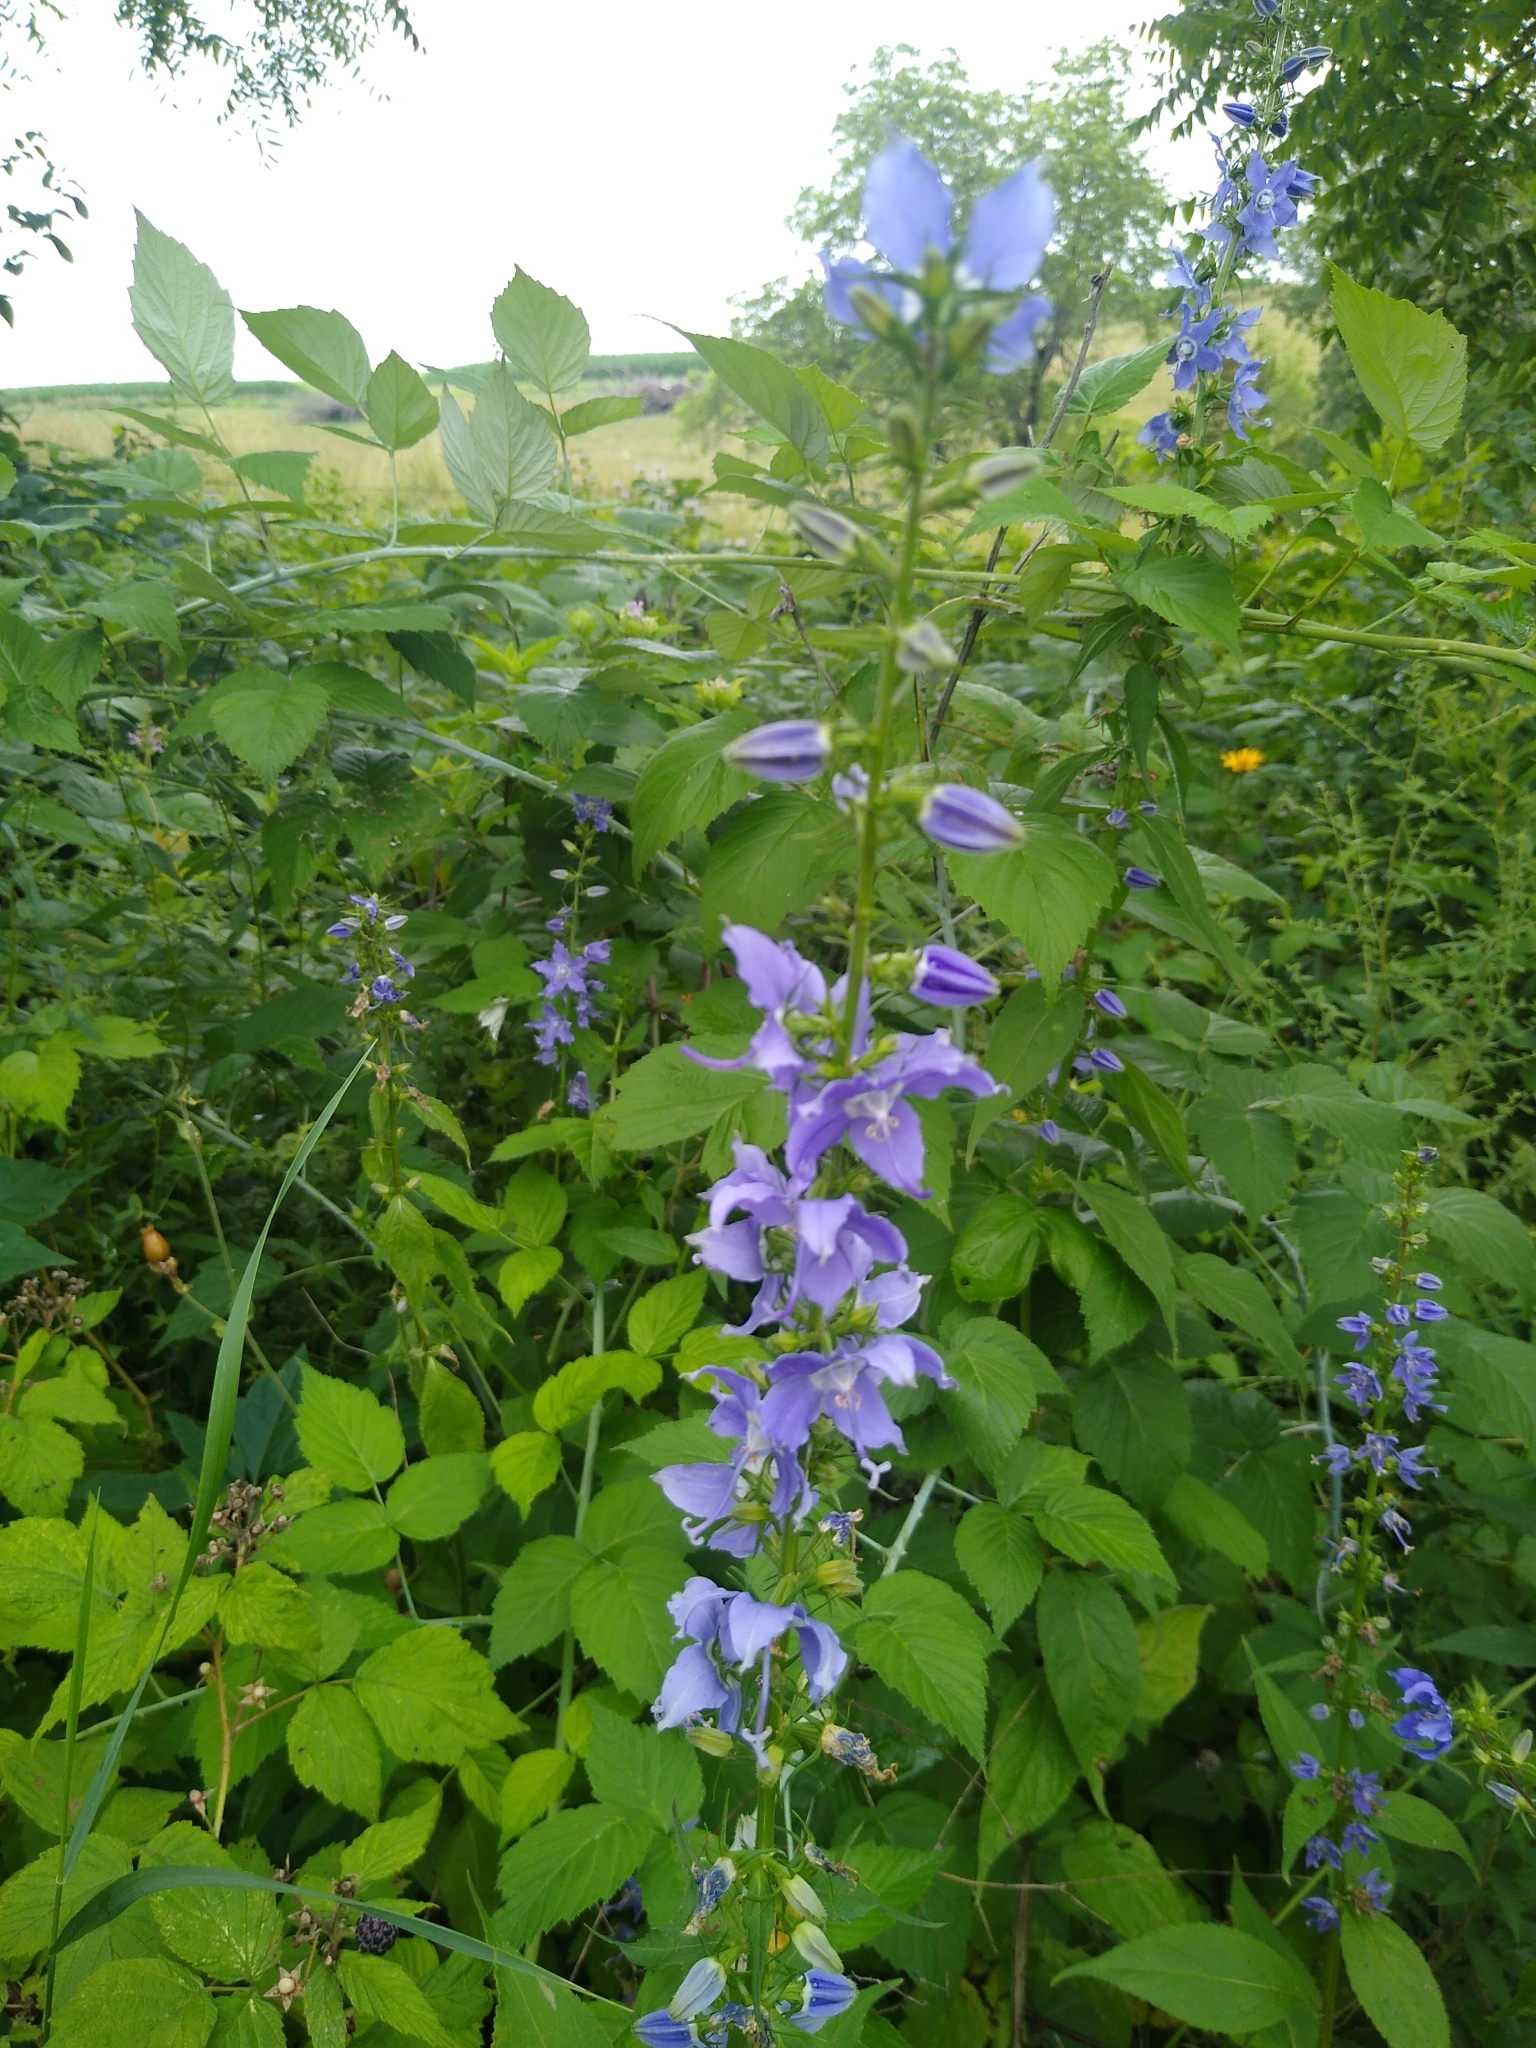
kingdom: Plantae
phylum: Tracheophyta
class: Magnoliopsida
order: Asterales
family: Campanulaceae
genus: Campanulastrum
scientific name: Campanulastrum americanum
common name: American bellflower
